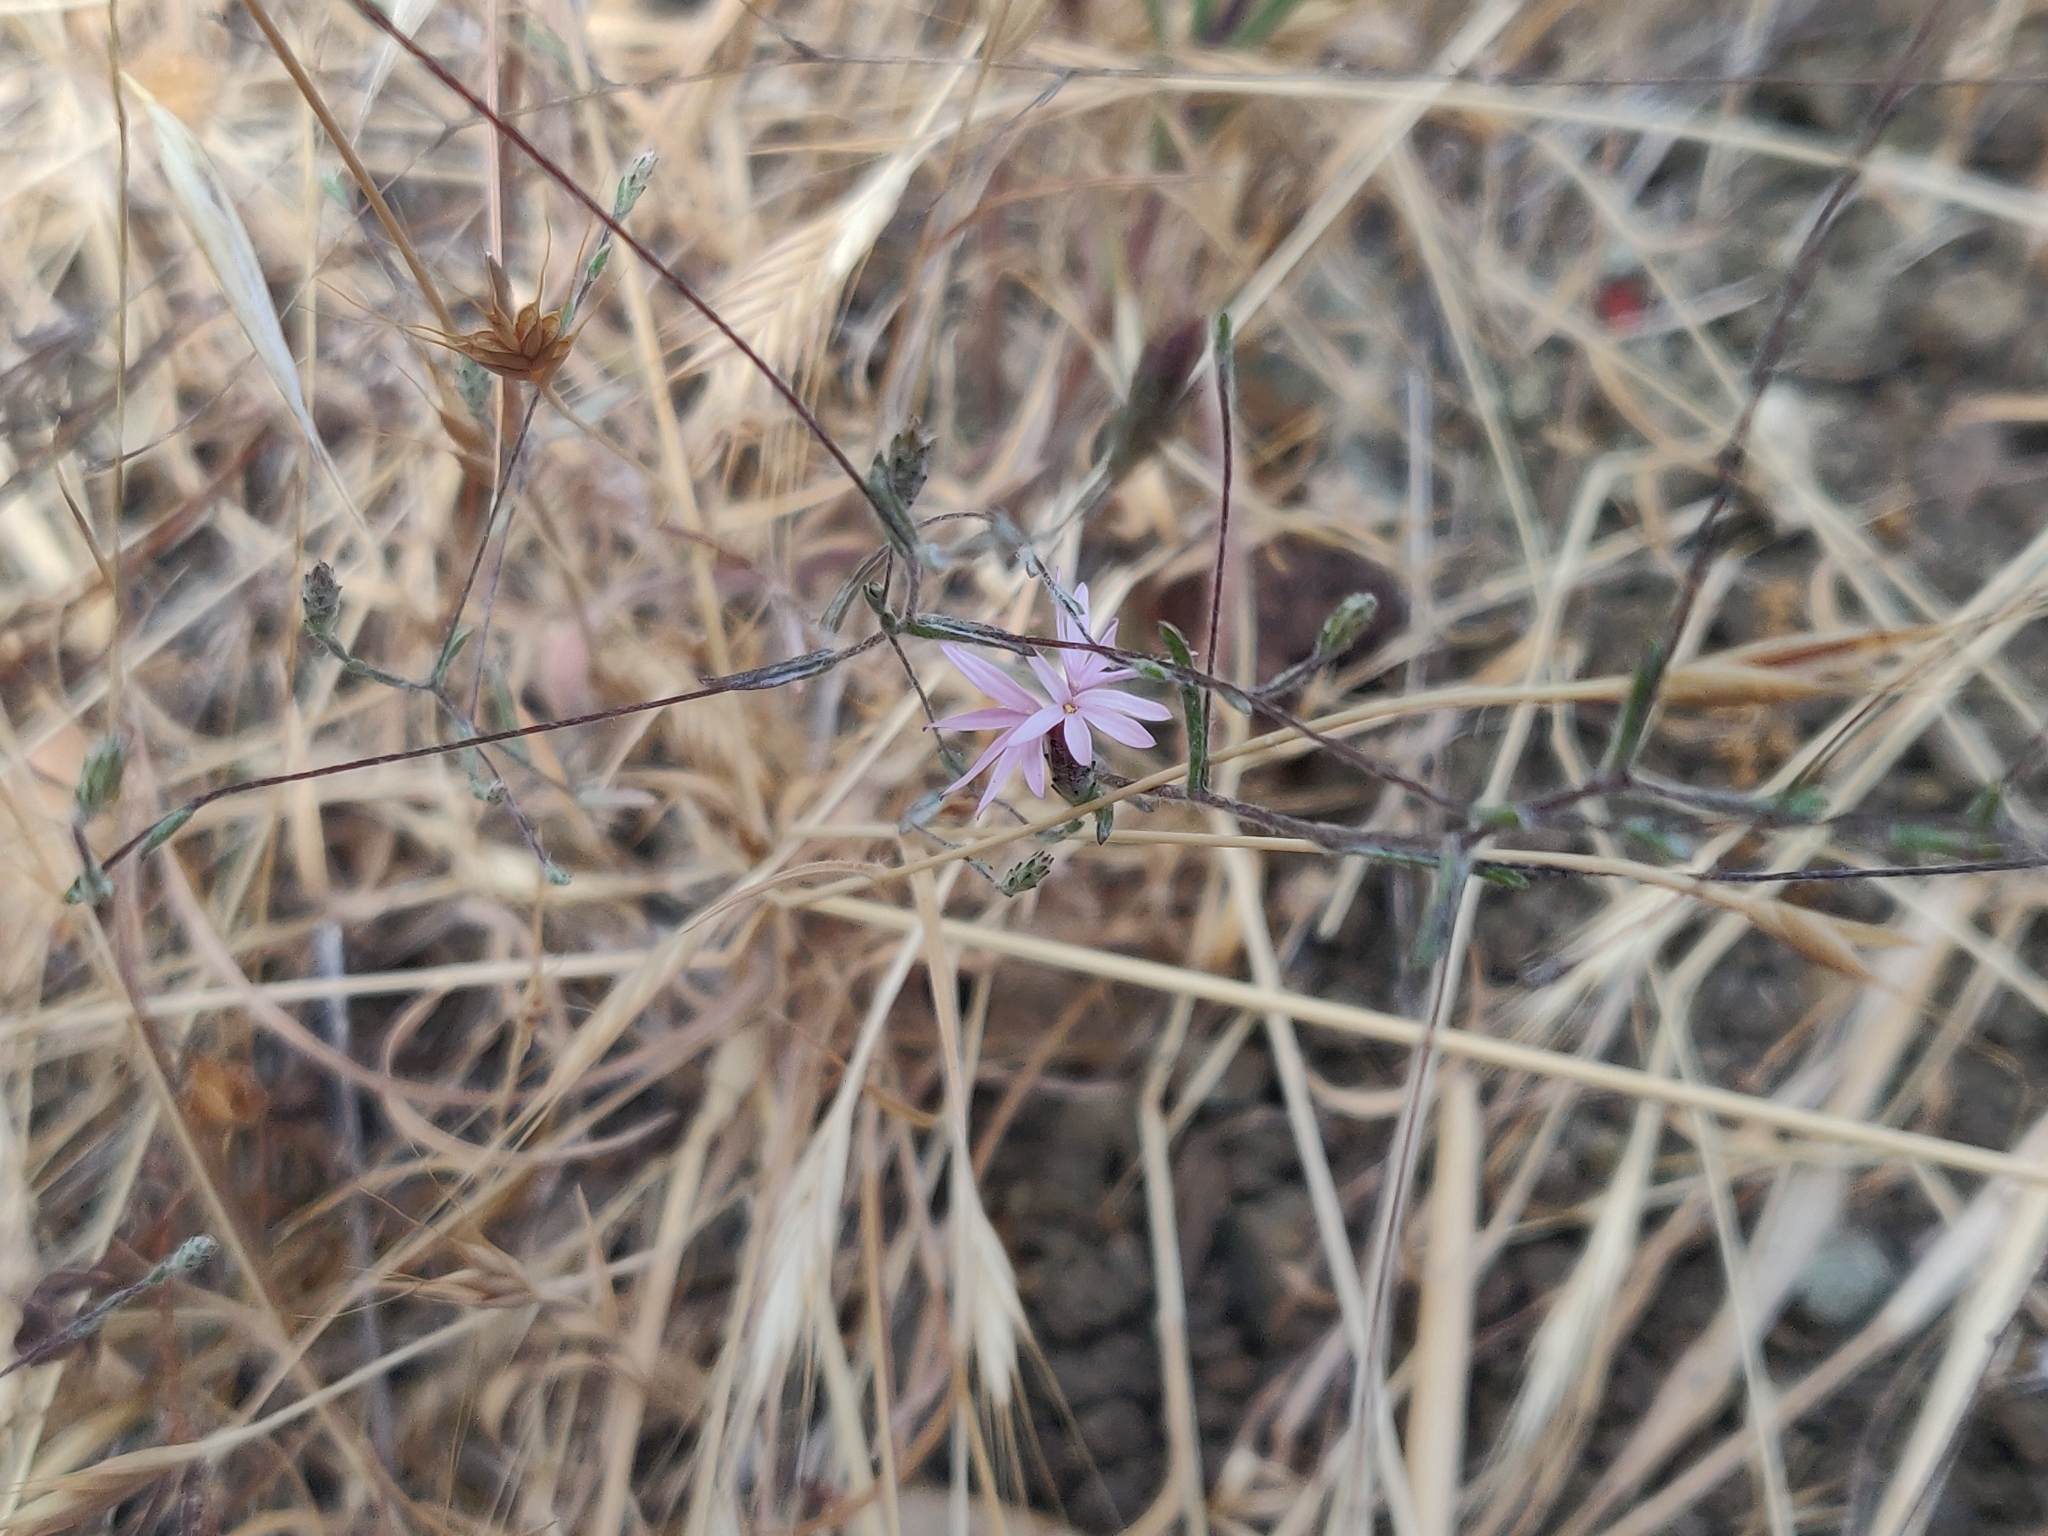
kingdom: Plantae
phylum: Tracheophyta
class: Magnoliopsida
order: Asterales
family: Asteraceae
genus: Lessingia
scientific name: Lessingia arachnoidea
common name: Crystal springs lessingia
